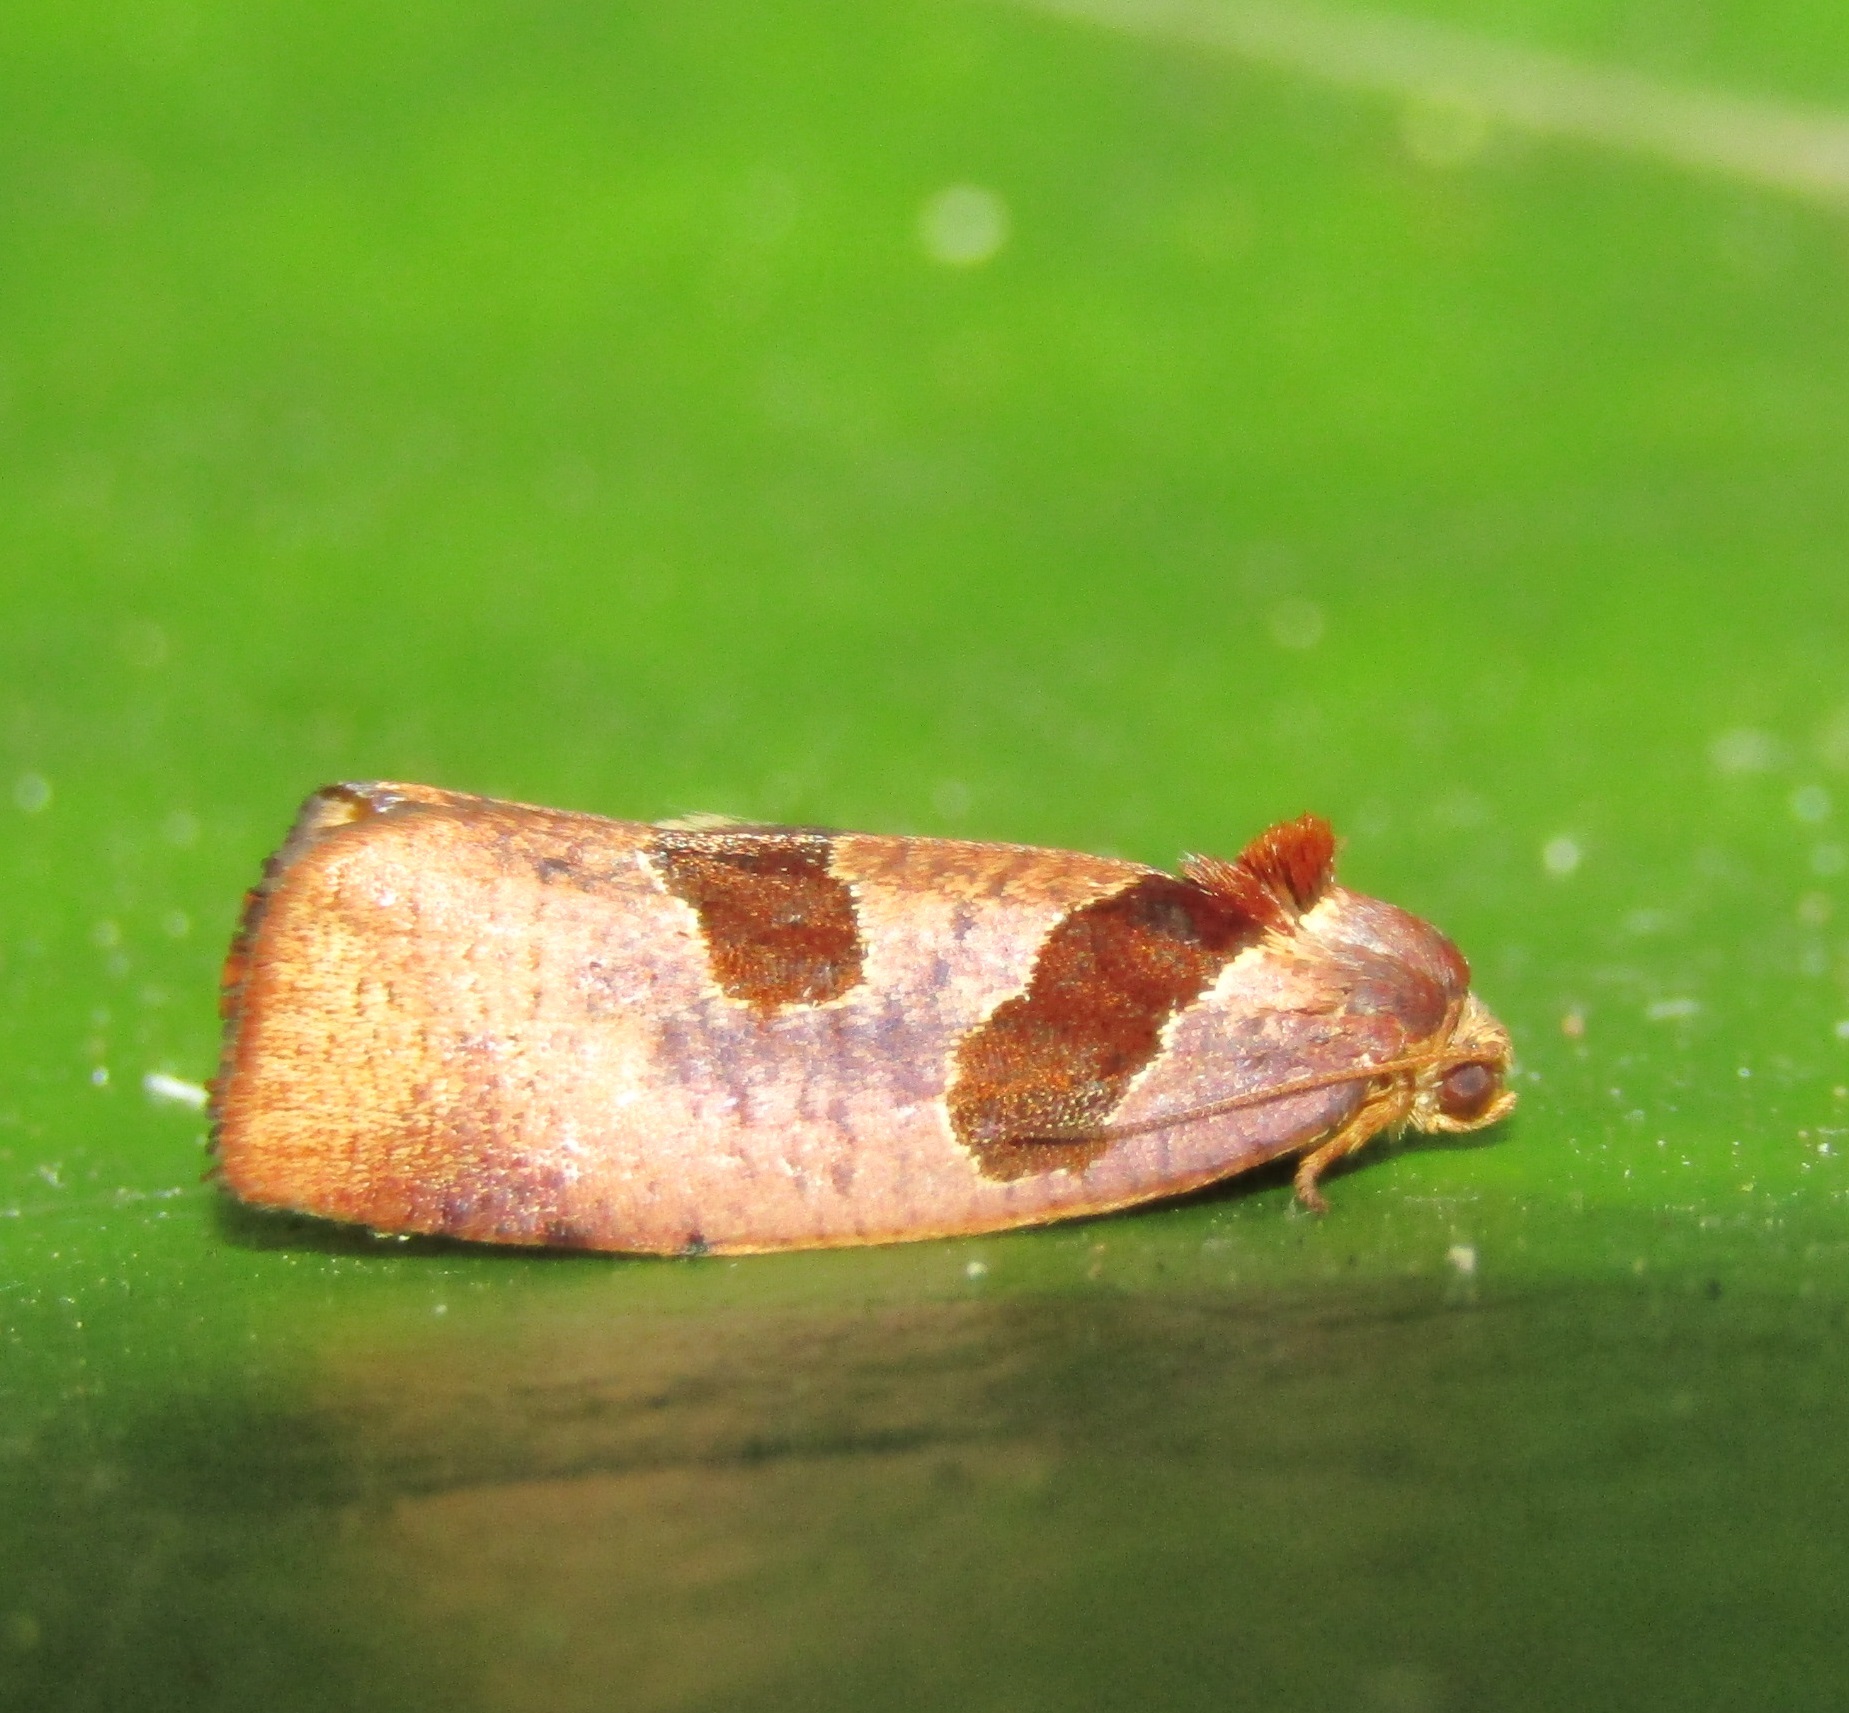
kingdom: Animalia
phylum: Arthropoda
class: Insecta
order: Lepidoptera
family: Tortricidae
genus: Ochetarcha
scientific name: Ochetarcha
